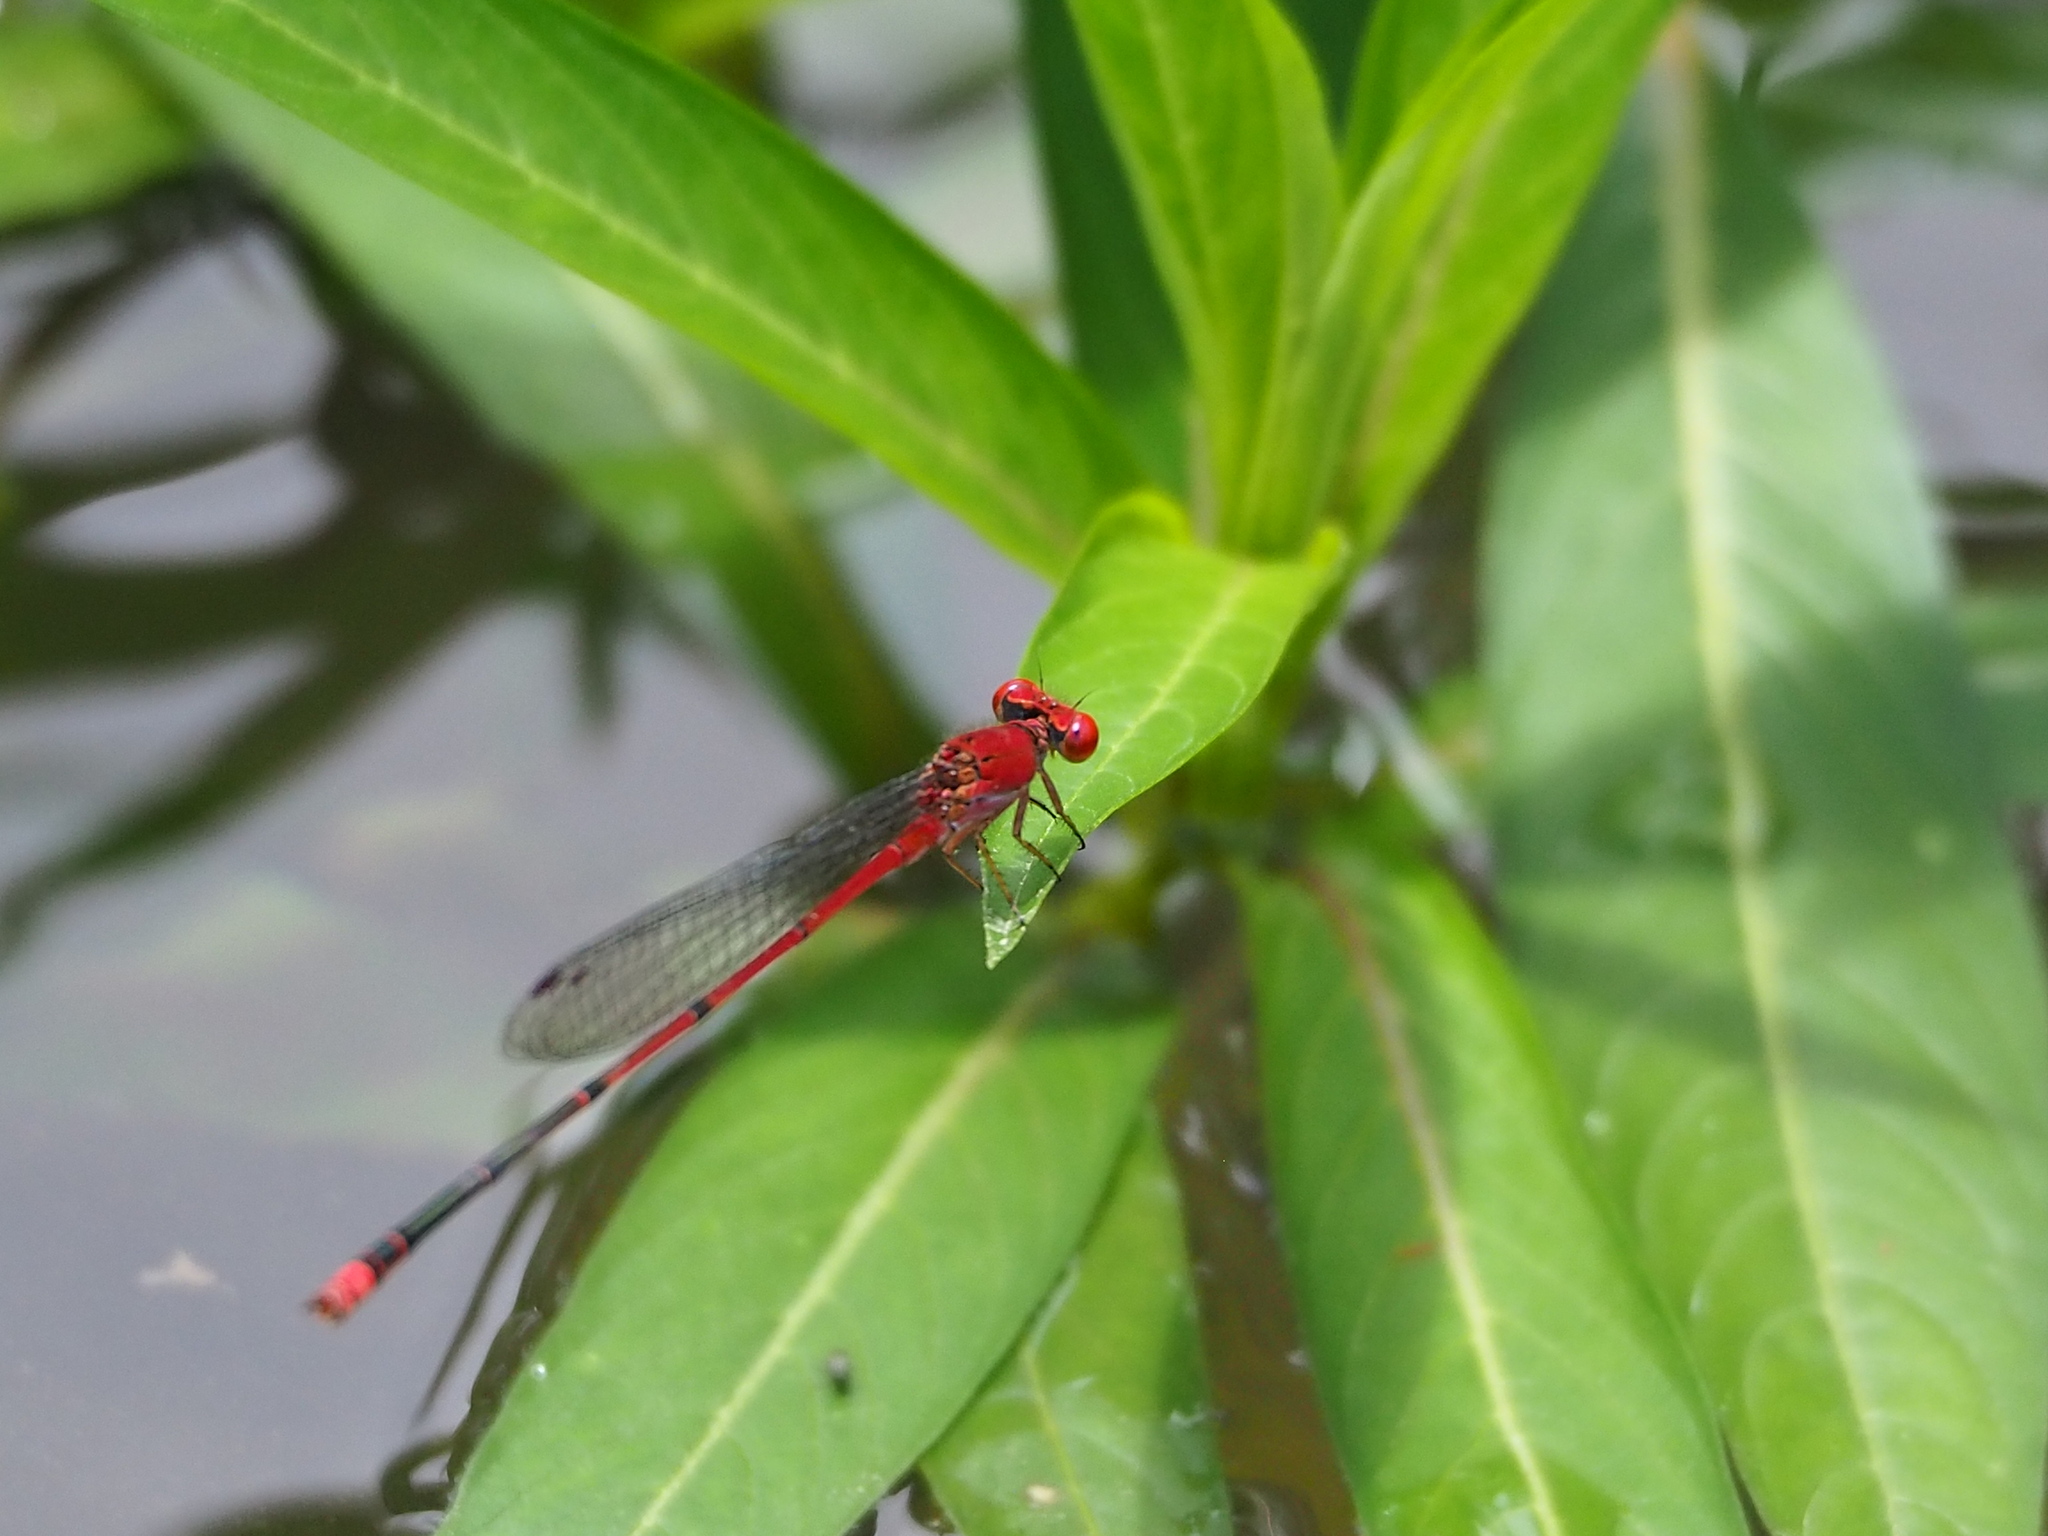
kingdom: Animalia
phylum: Arthropoda
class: Insecta
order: Odonata
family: Coenagrionidae
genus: Pseudagrion
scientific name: Pseudagrion pilidorsum
